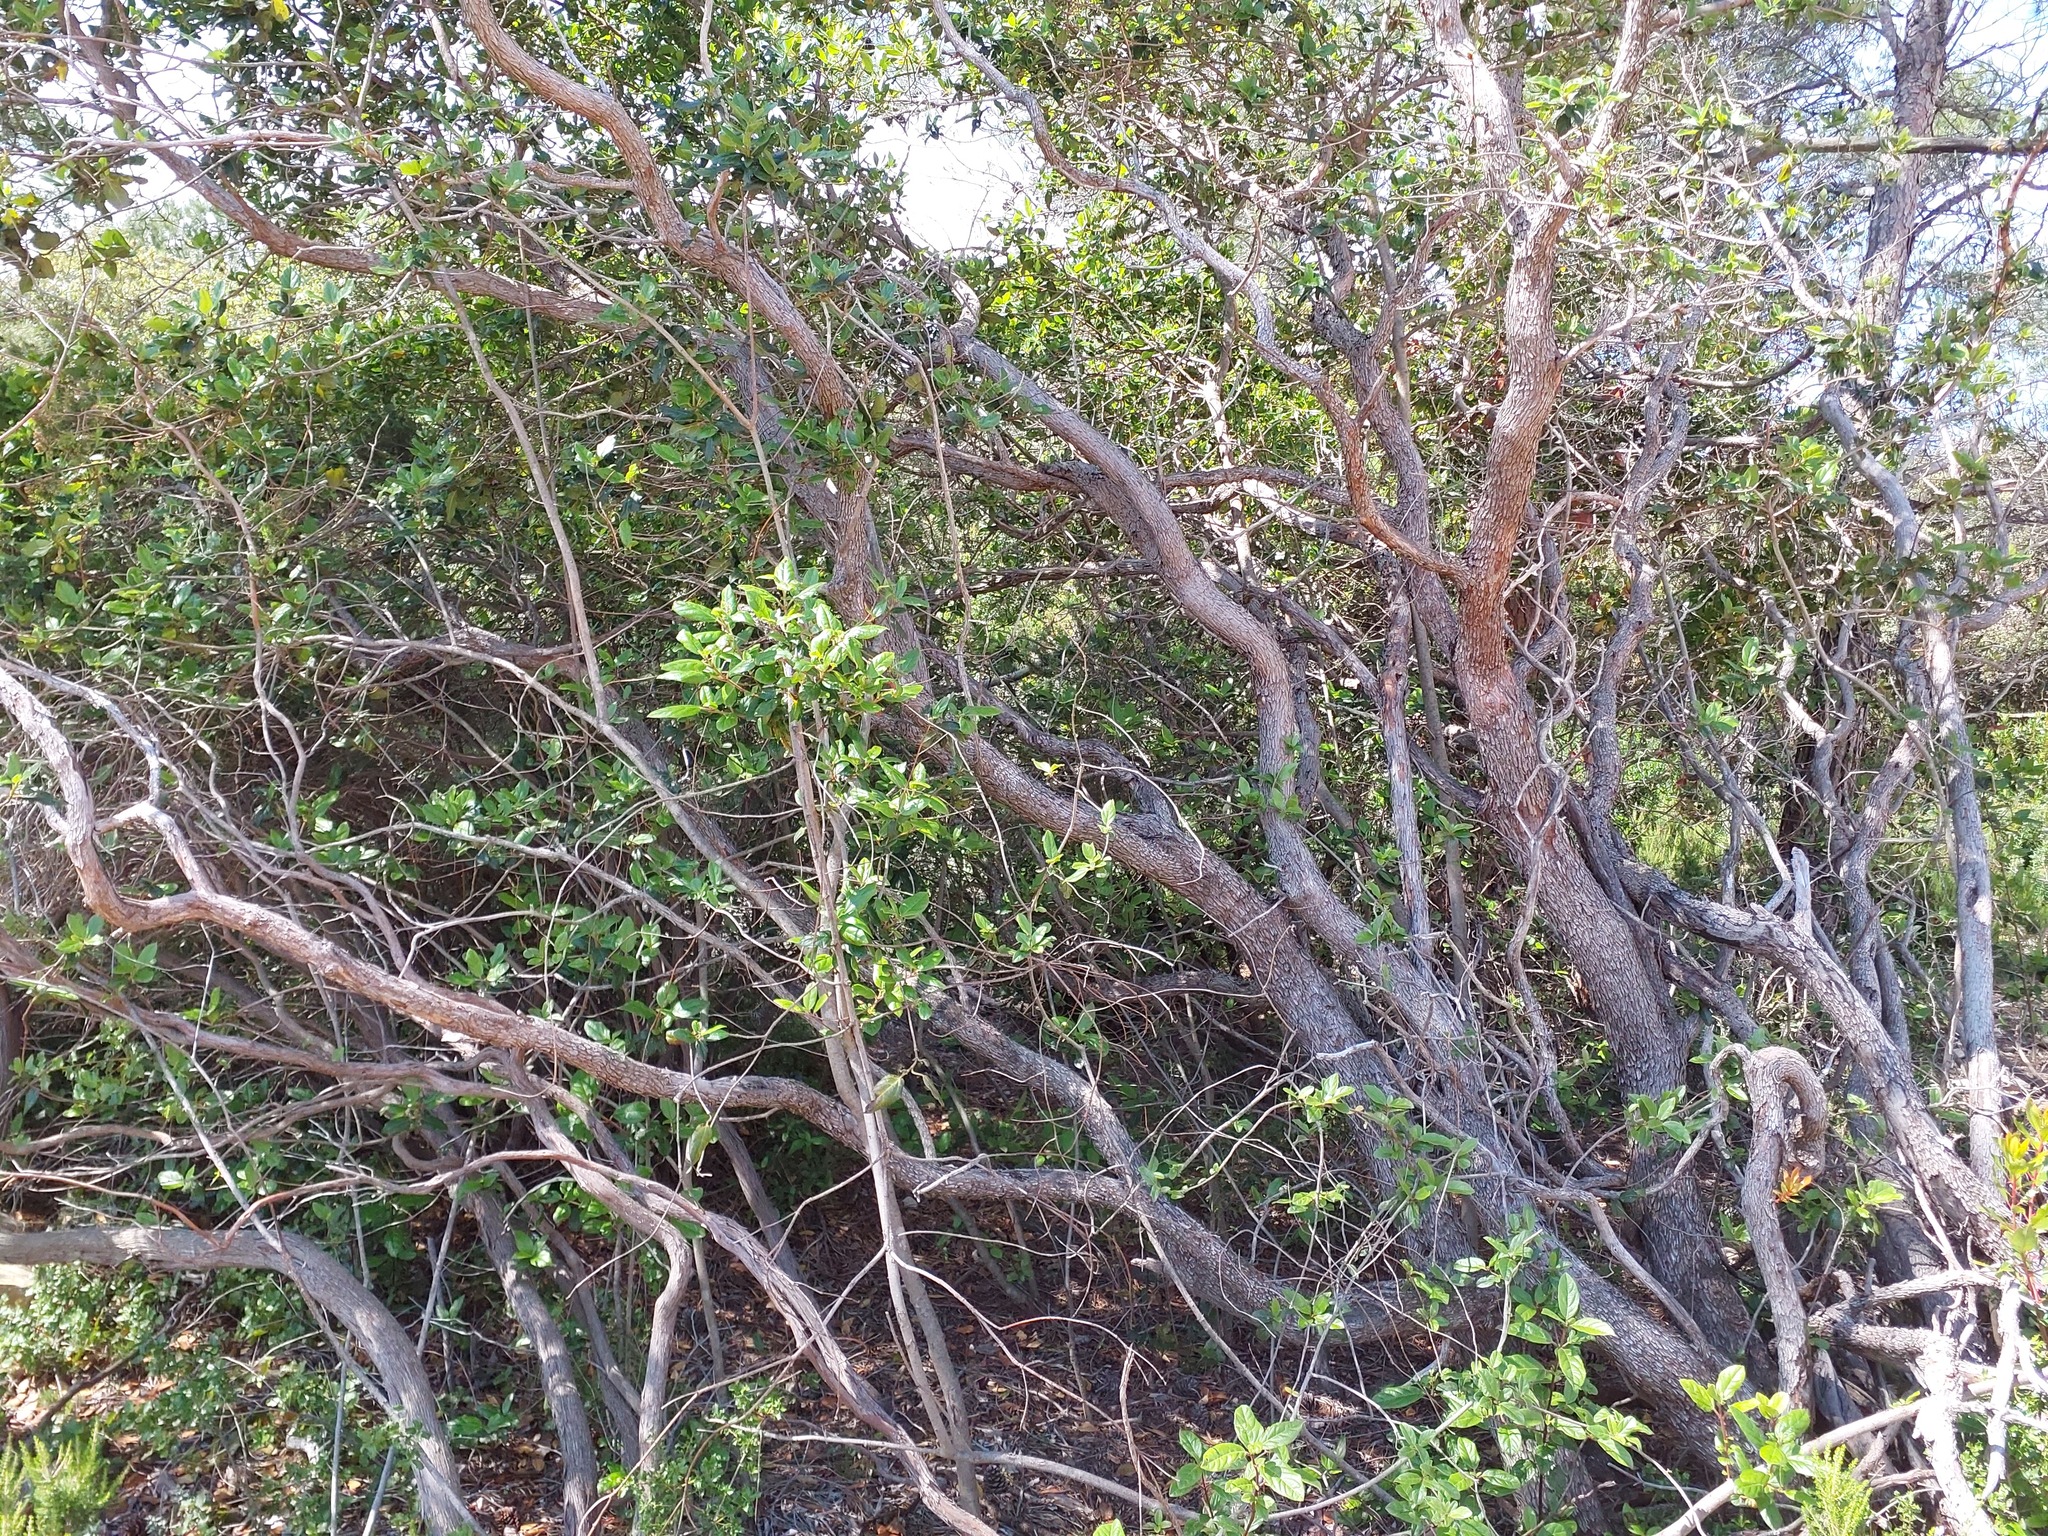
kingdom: Plantae
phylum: Tracheophyta
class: Magnoliopsida
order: Ericales
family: Ericaceae
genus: Arbutus
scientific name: Arbutus unedo
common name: Strawberry-tree
